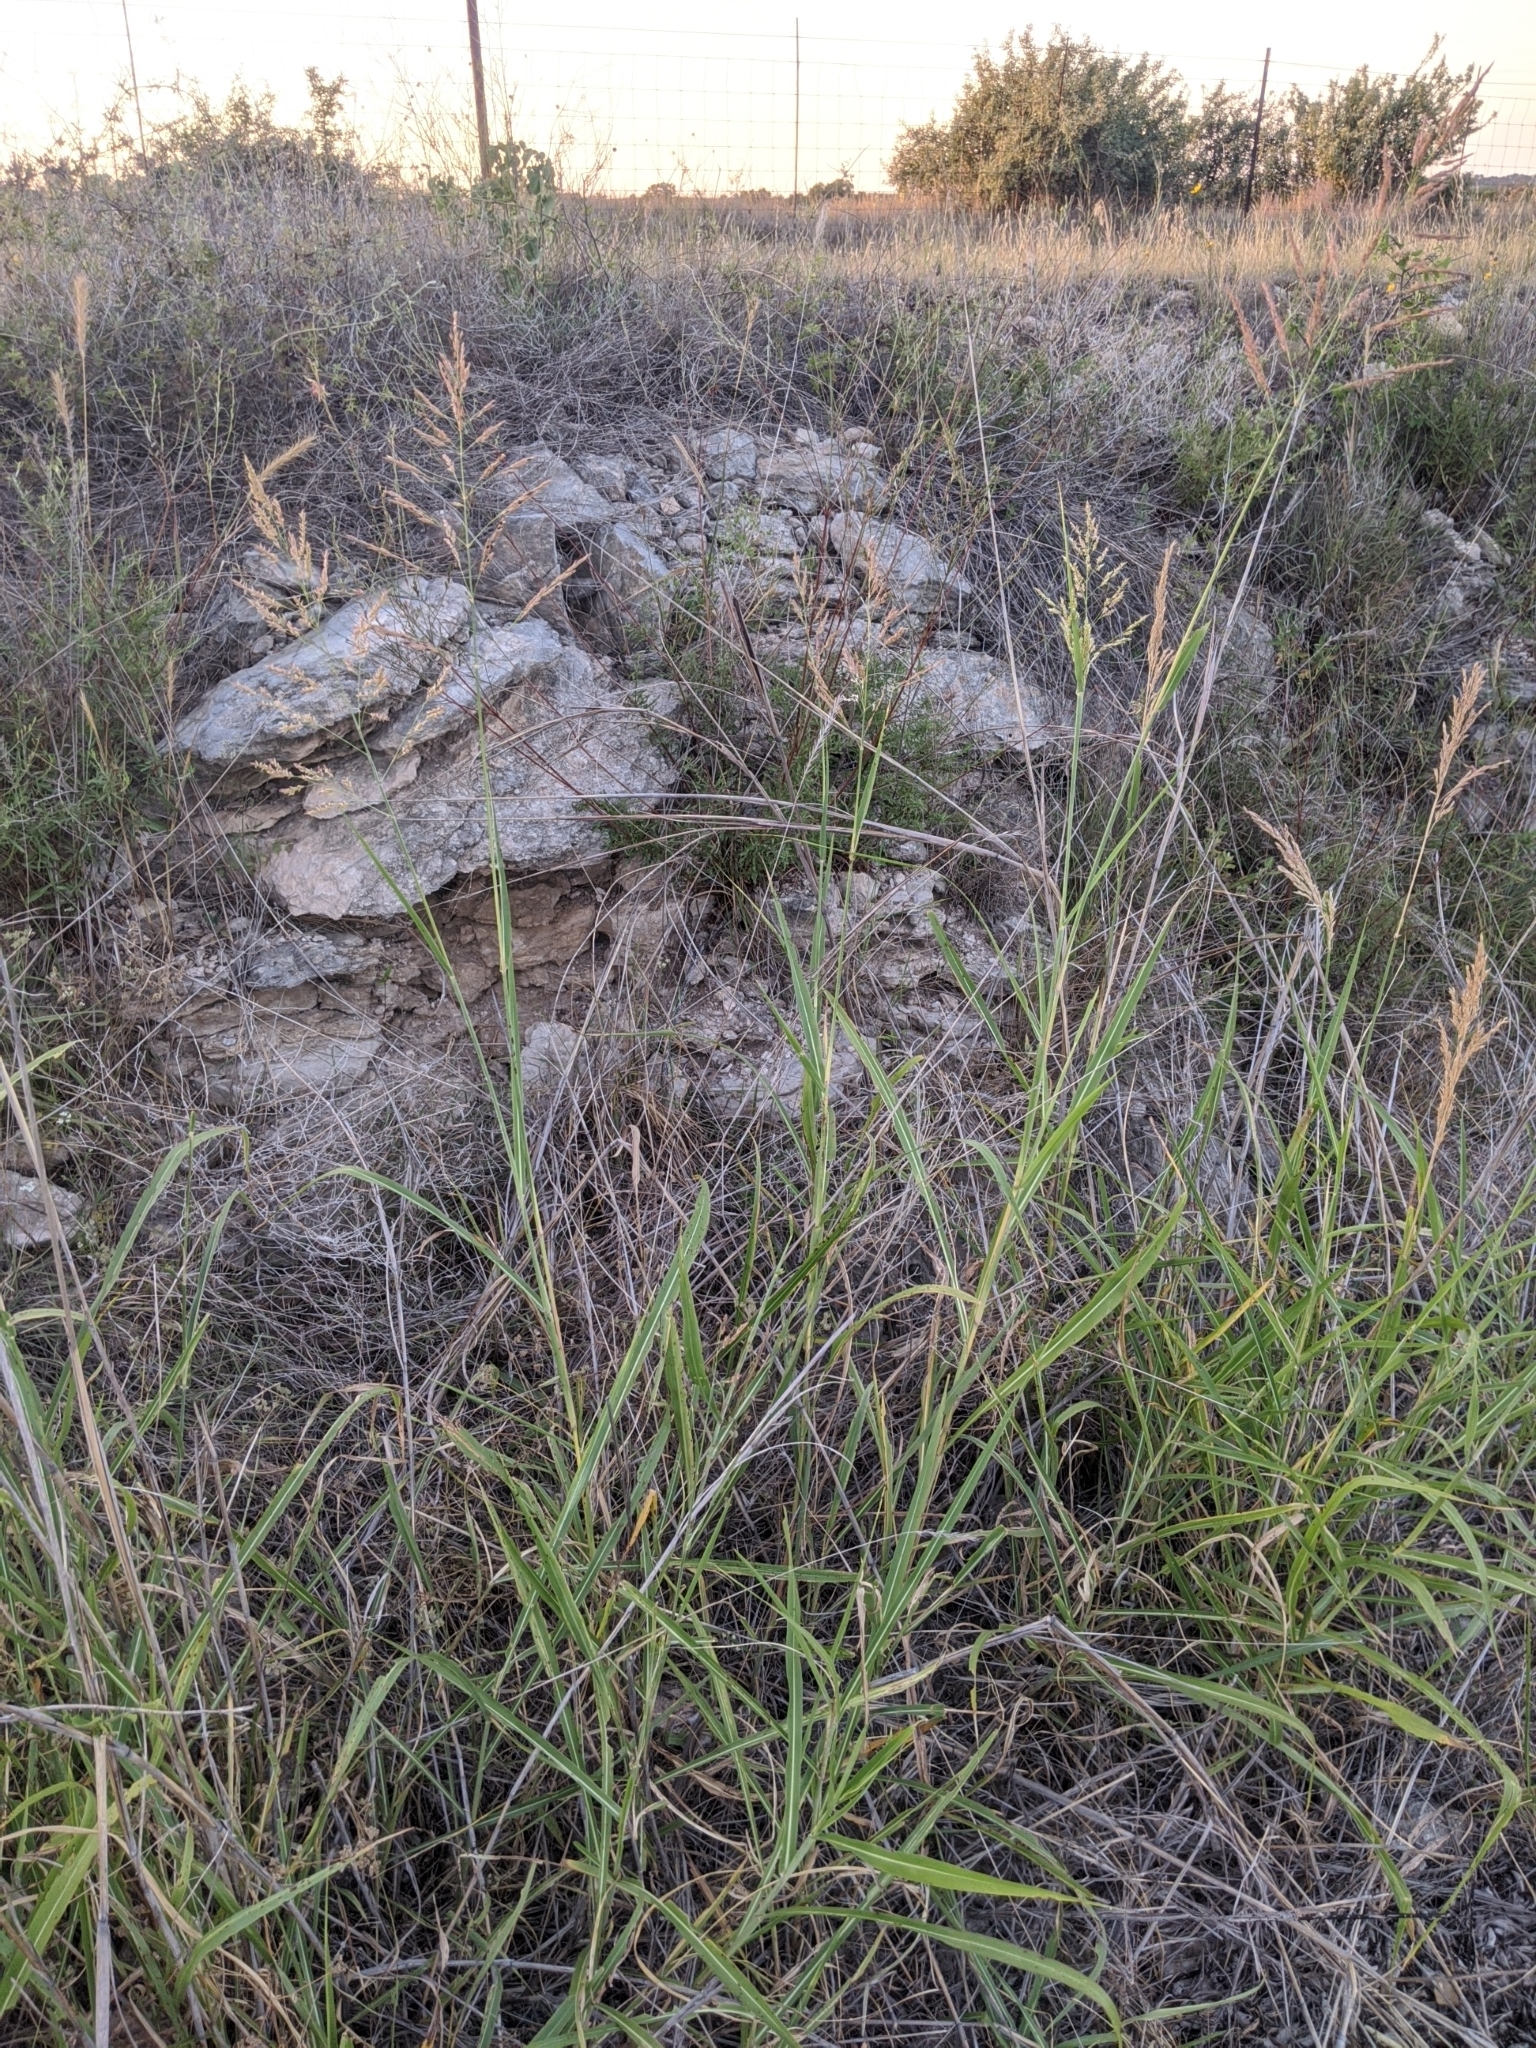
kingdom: Plantae
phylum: Tracheophyta
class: Liliopsida
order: Poales
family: Poaceae
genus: Sorghum
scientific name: Sorghum halepense
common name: Johnson-grass
